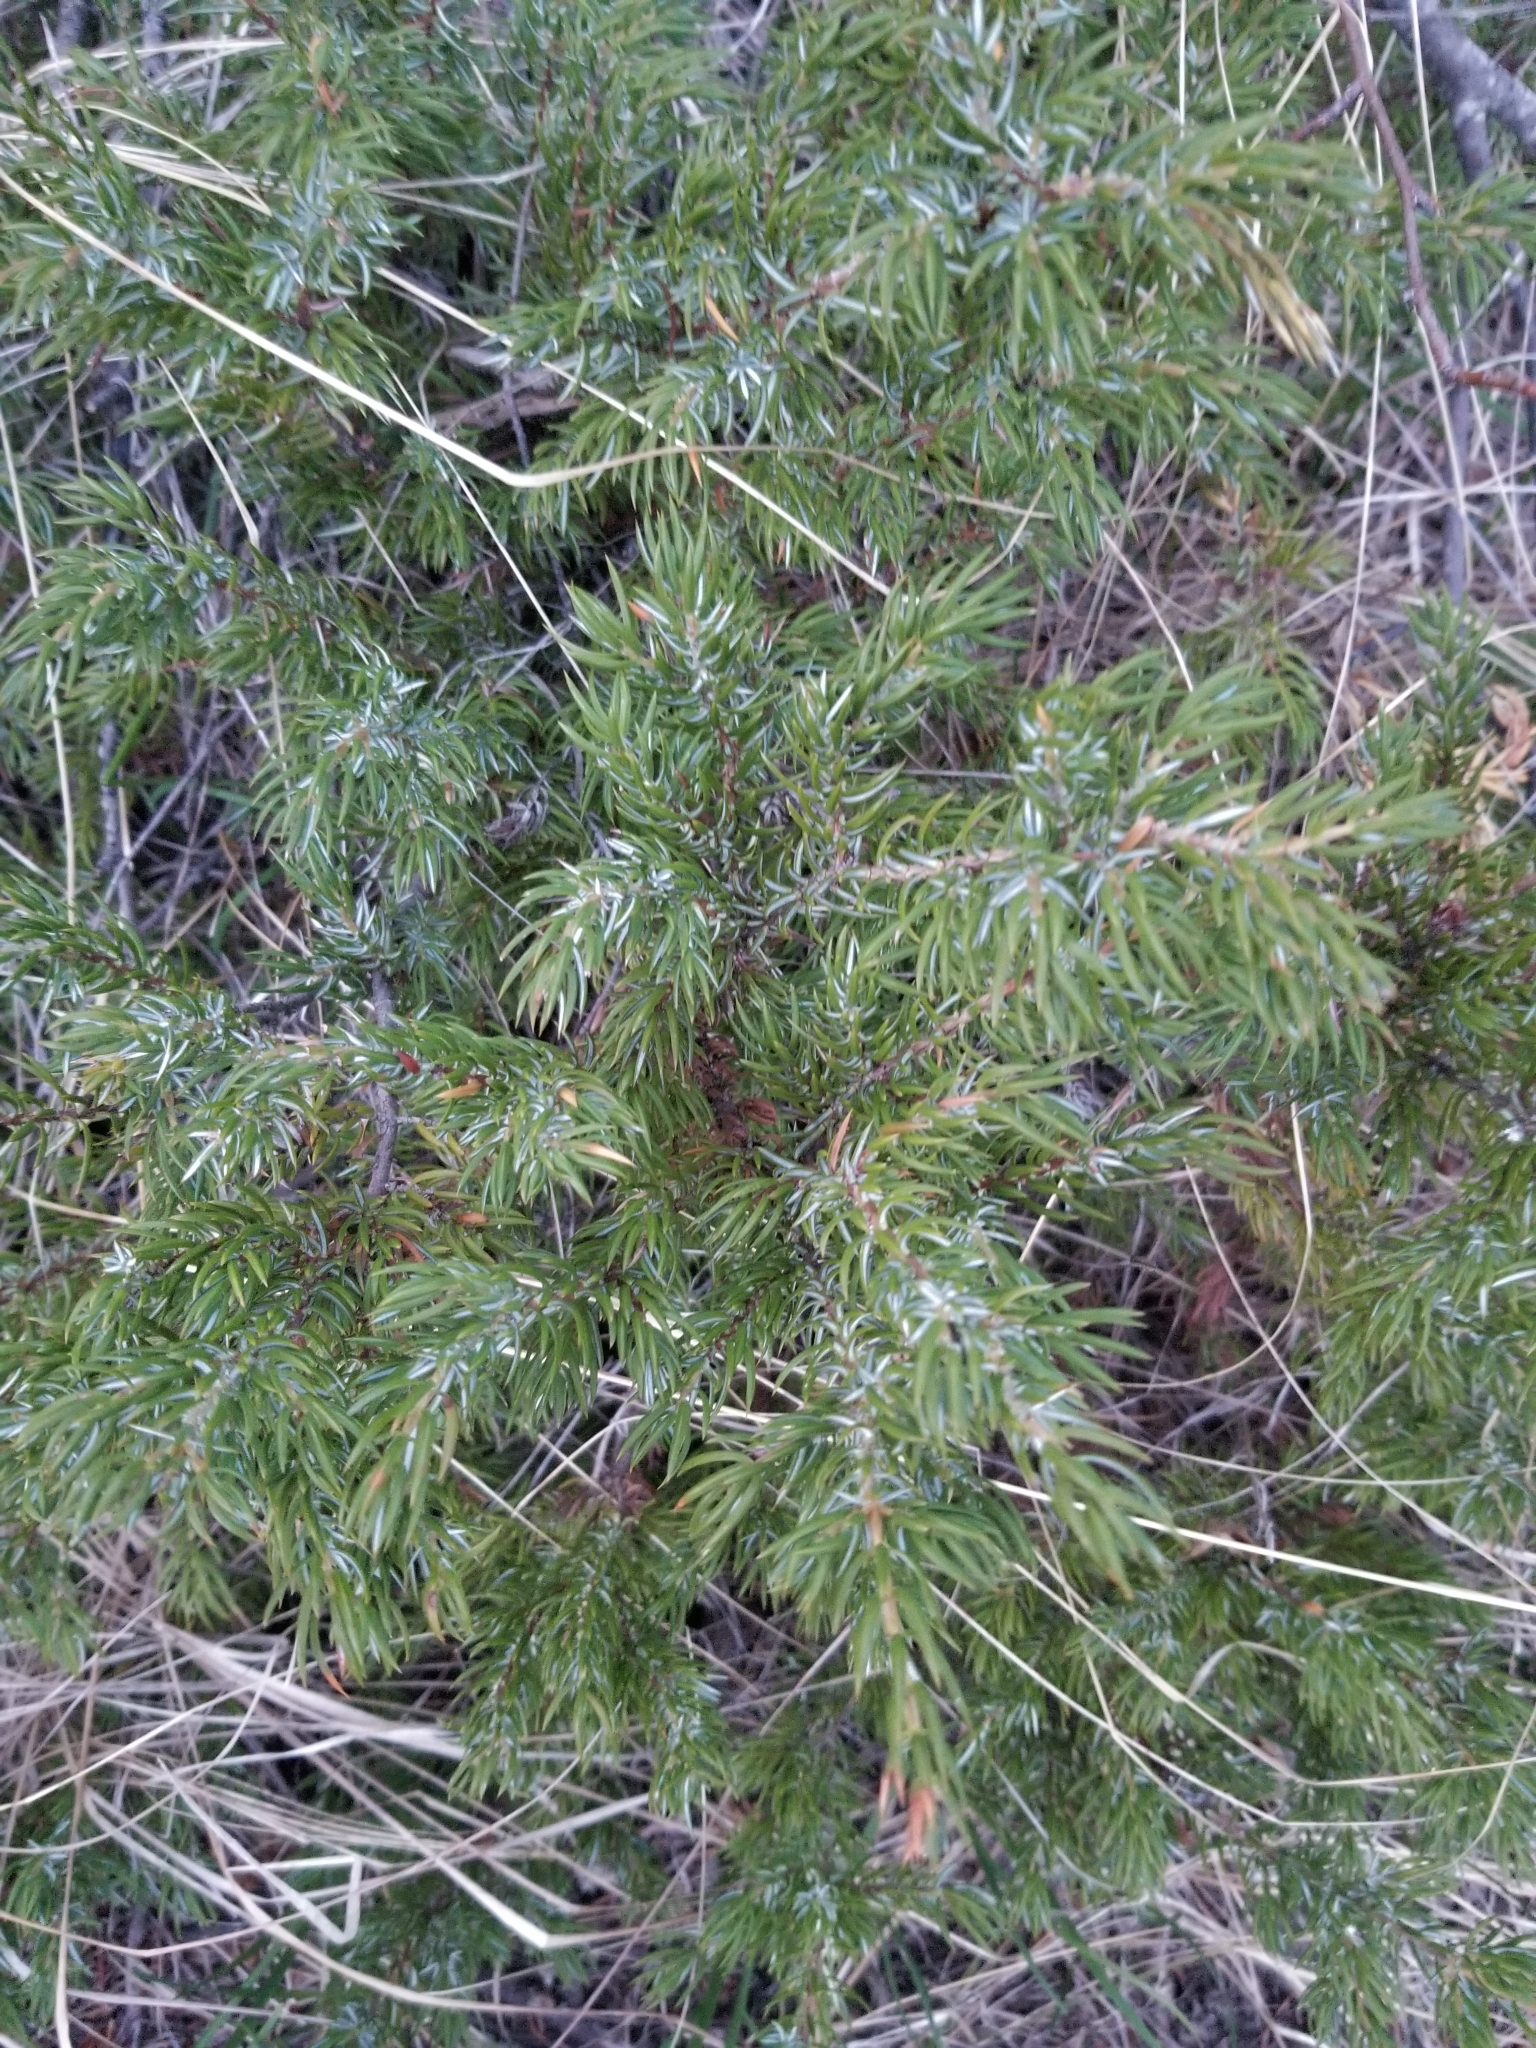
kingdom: Plantae
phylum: Tracheophyta
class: Pinopsida
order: Pinales
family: Cupressaceae
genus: Juniperus
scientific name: Juniperus communis
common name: Common juniper
